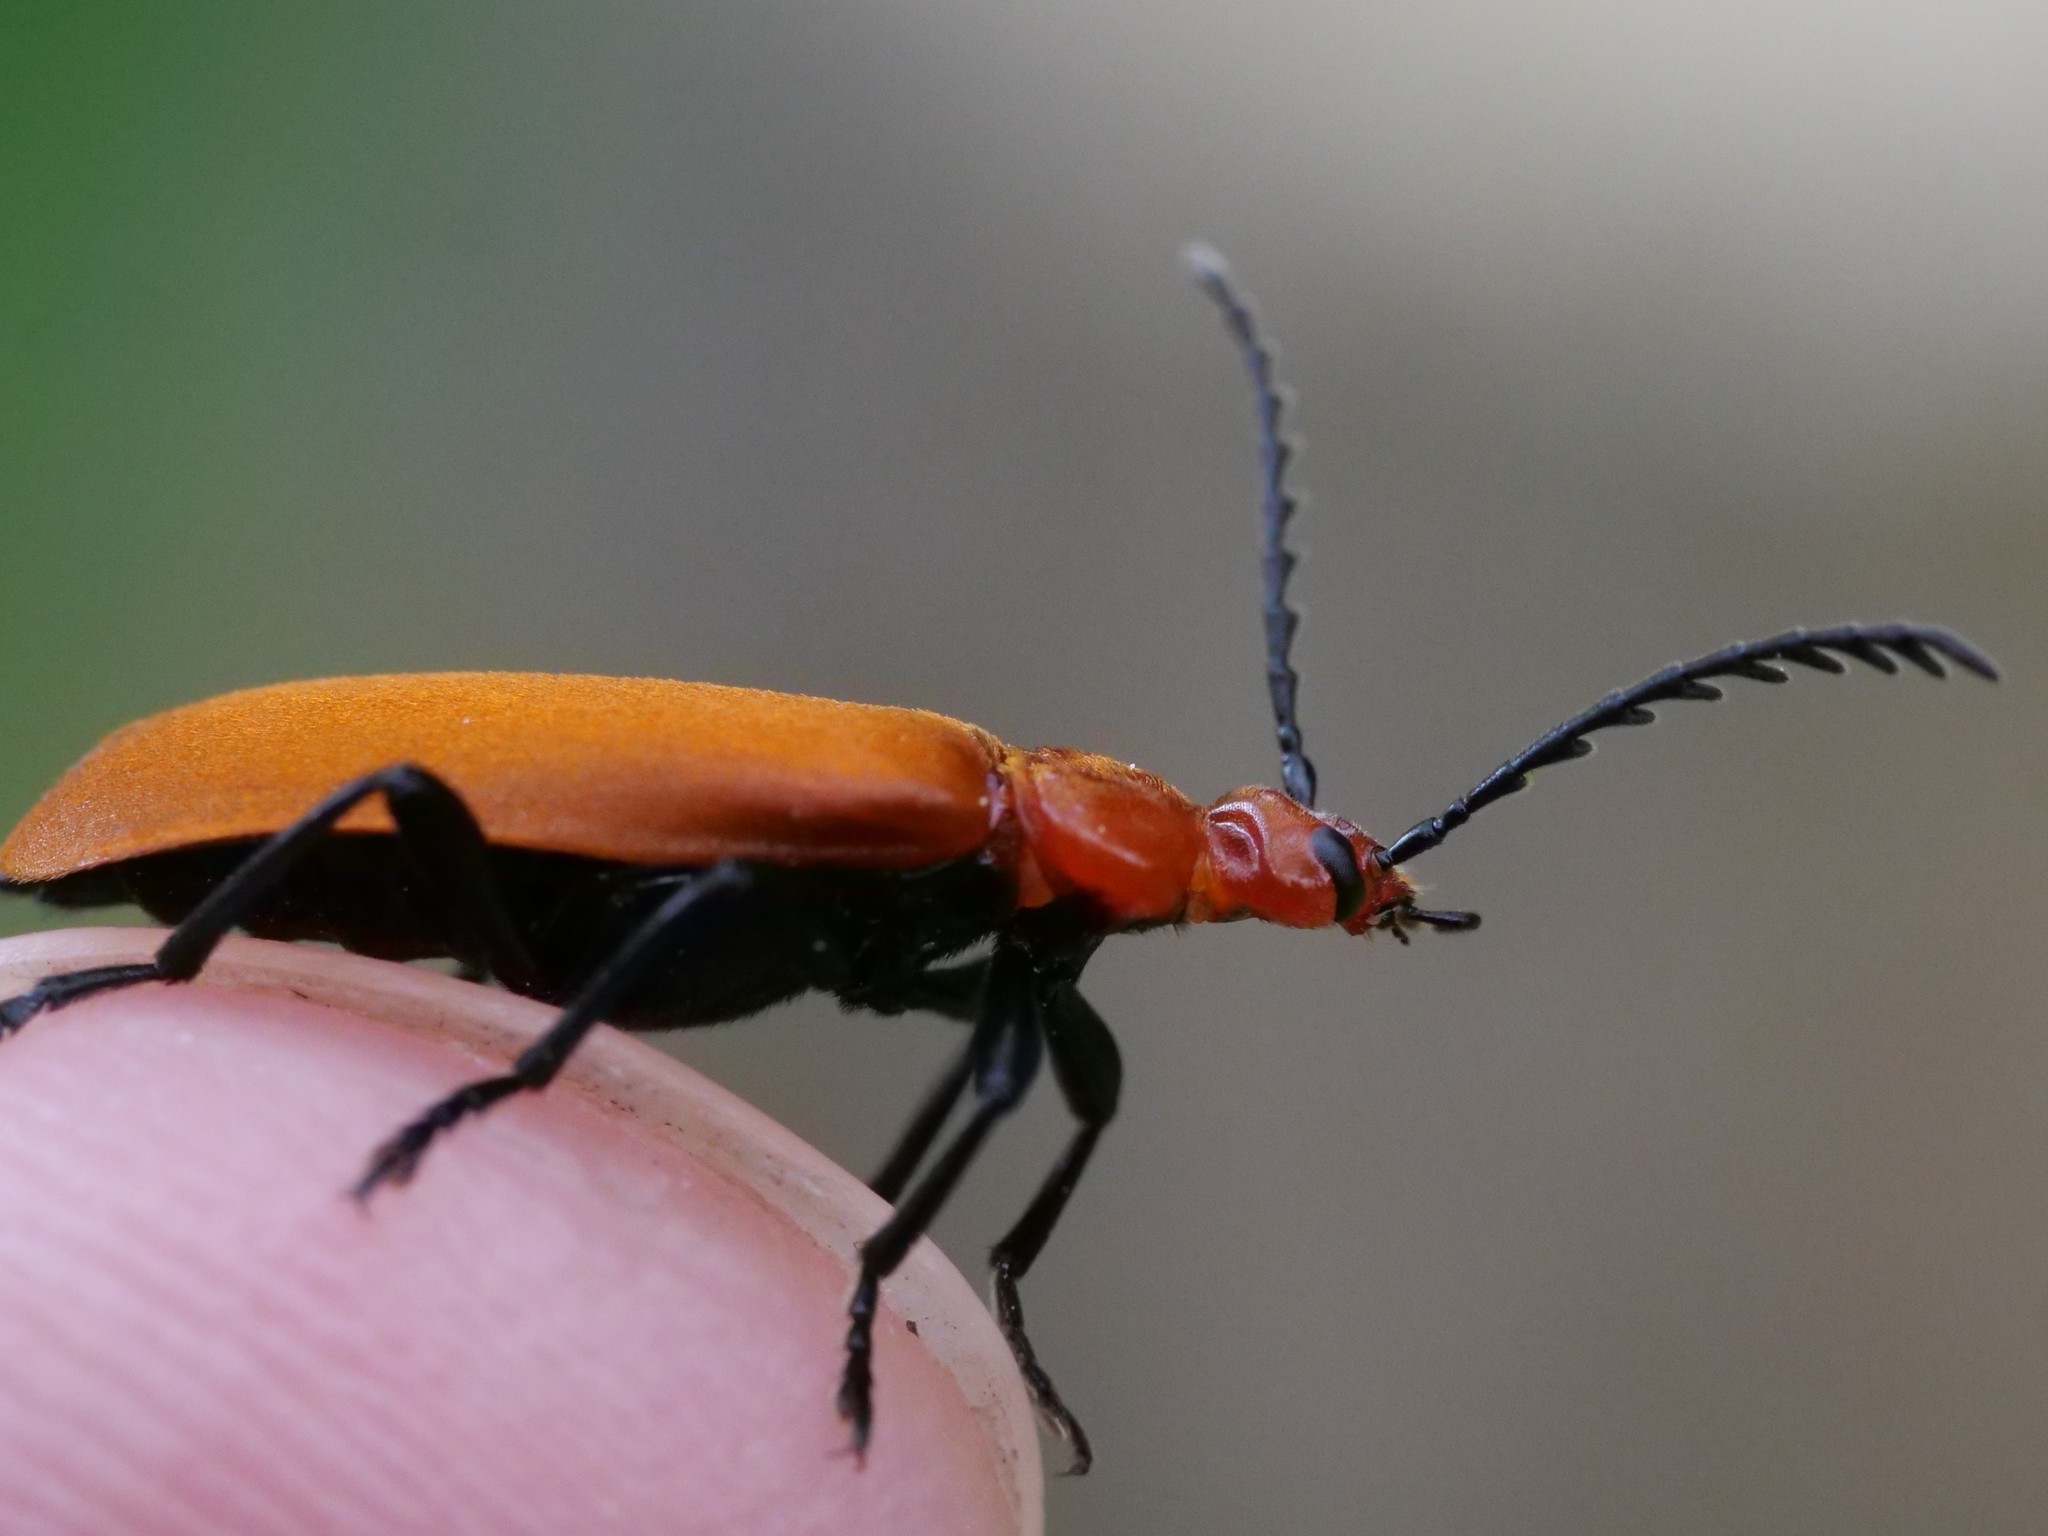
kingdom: Animalia
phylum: Arthropoda
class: Insecta
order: Coleoptera
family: Pyrochroidae
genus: Pyrochroa
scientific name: Pyrochroa serraticornis
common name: Red-headed cardinal beetle
